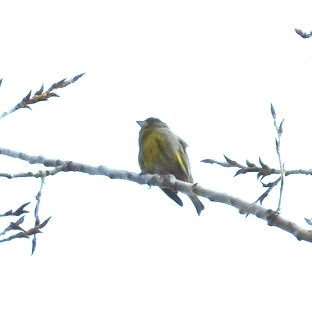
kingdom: Plantae
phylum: Tracheophyta
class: Liliopsida
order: Poales
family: Poaceae
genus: Chloris
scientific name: Chloris chloris
